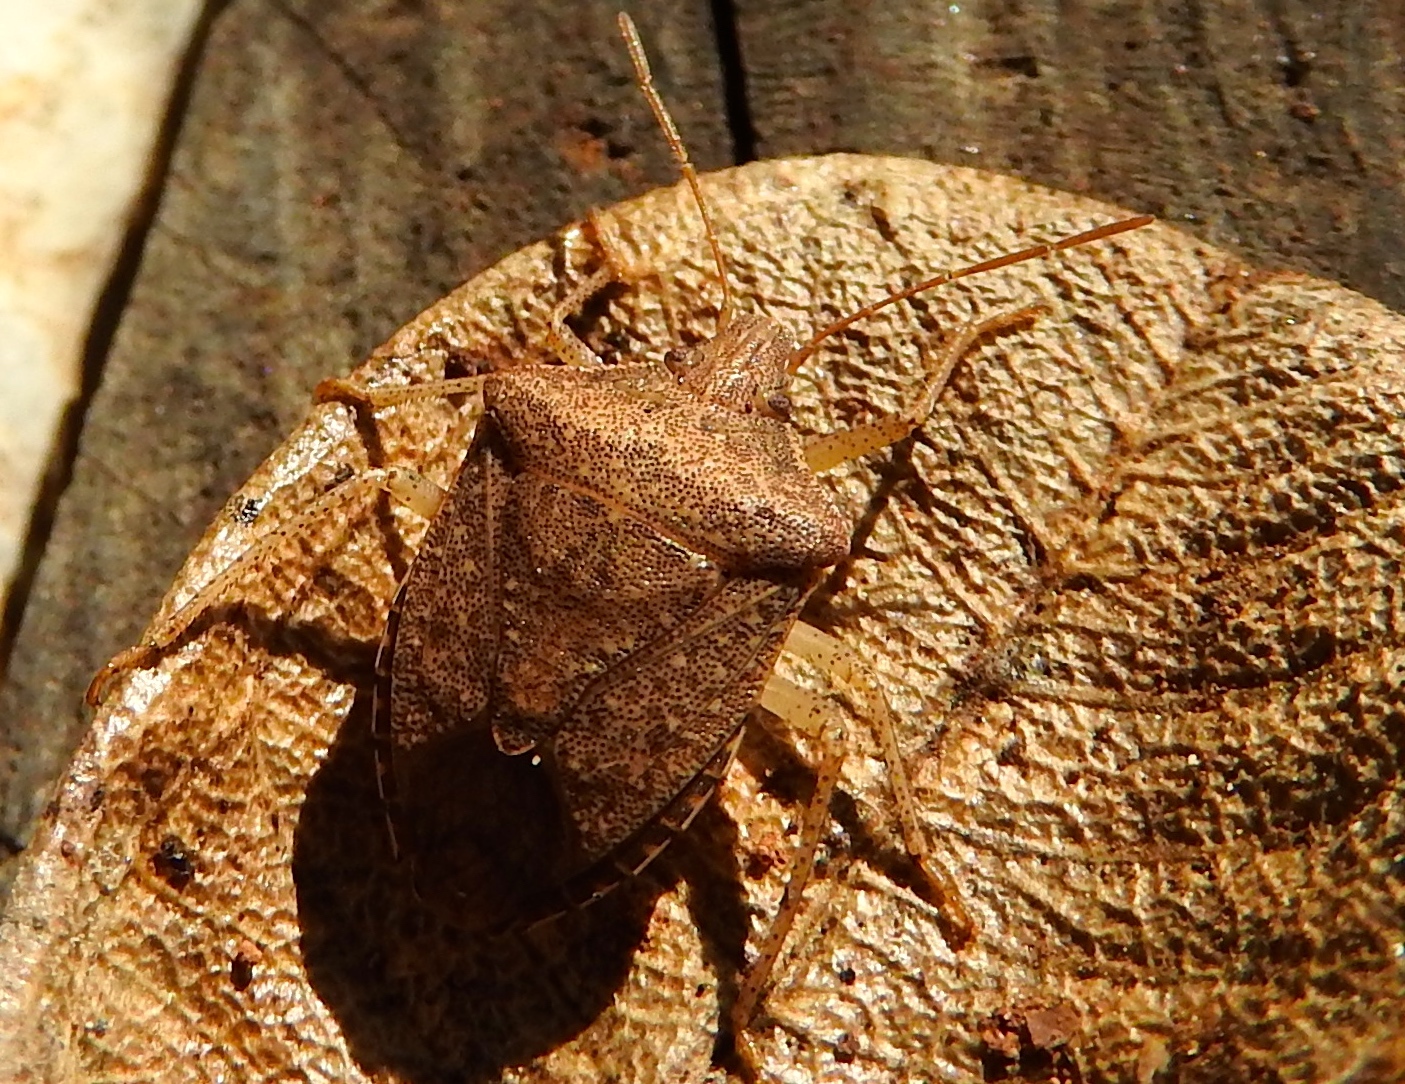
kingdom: Animalia
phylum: Arthropoda
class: Insecta
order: Hemiptera
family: Pentatomidae
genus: Euschistus
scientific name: Euschistus
